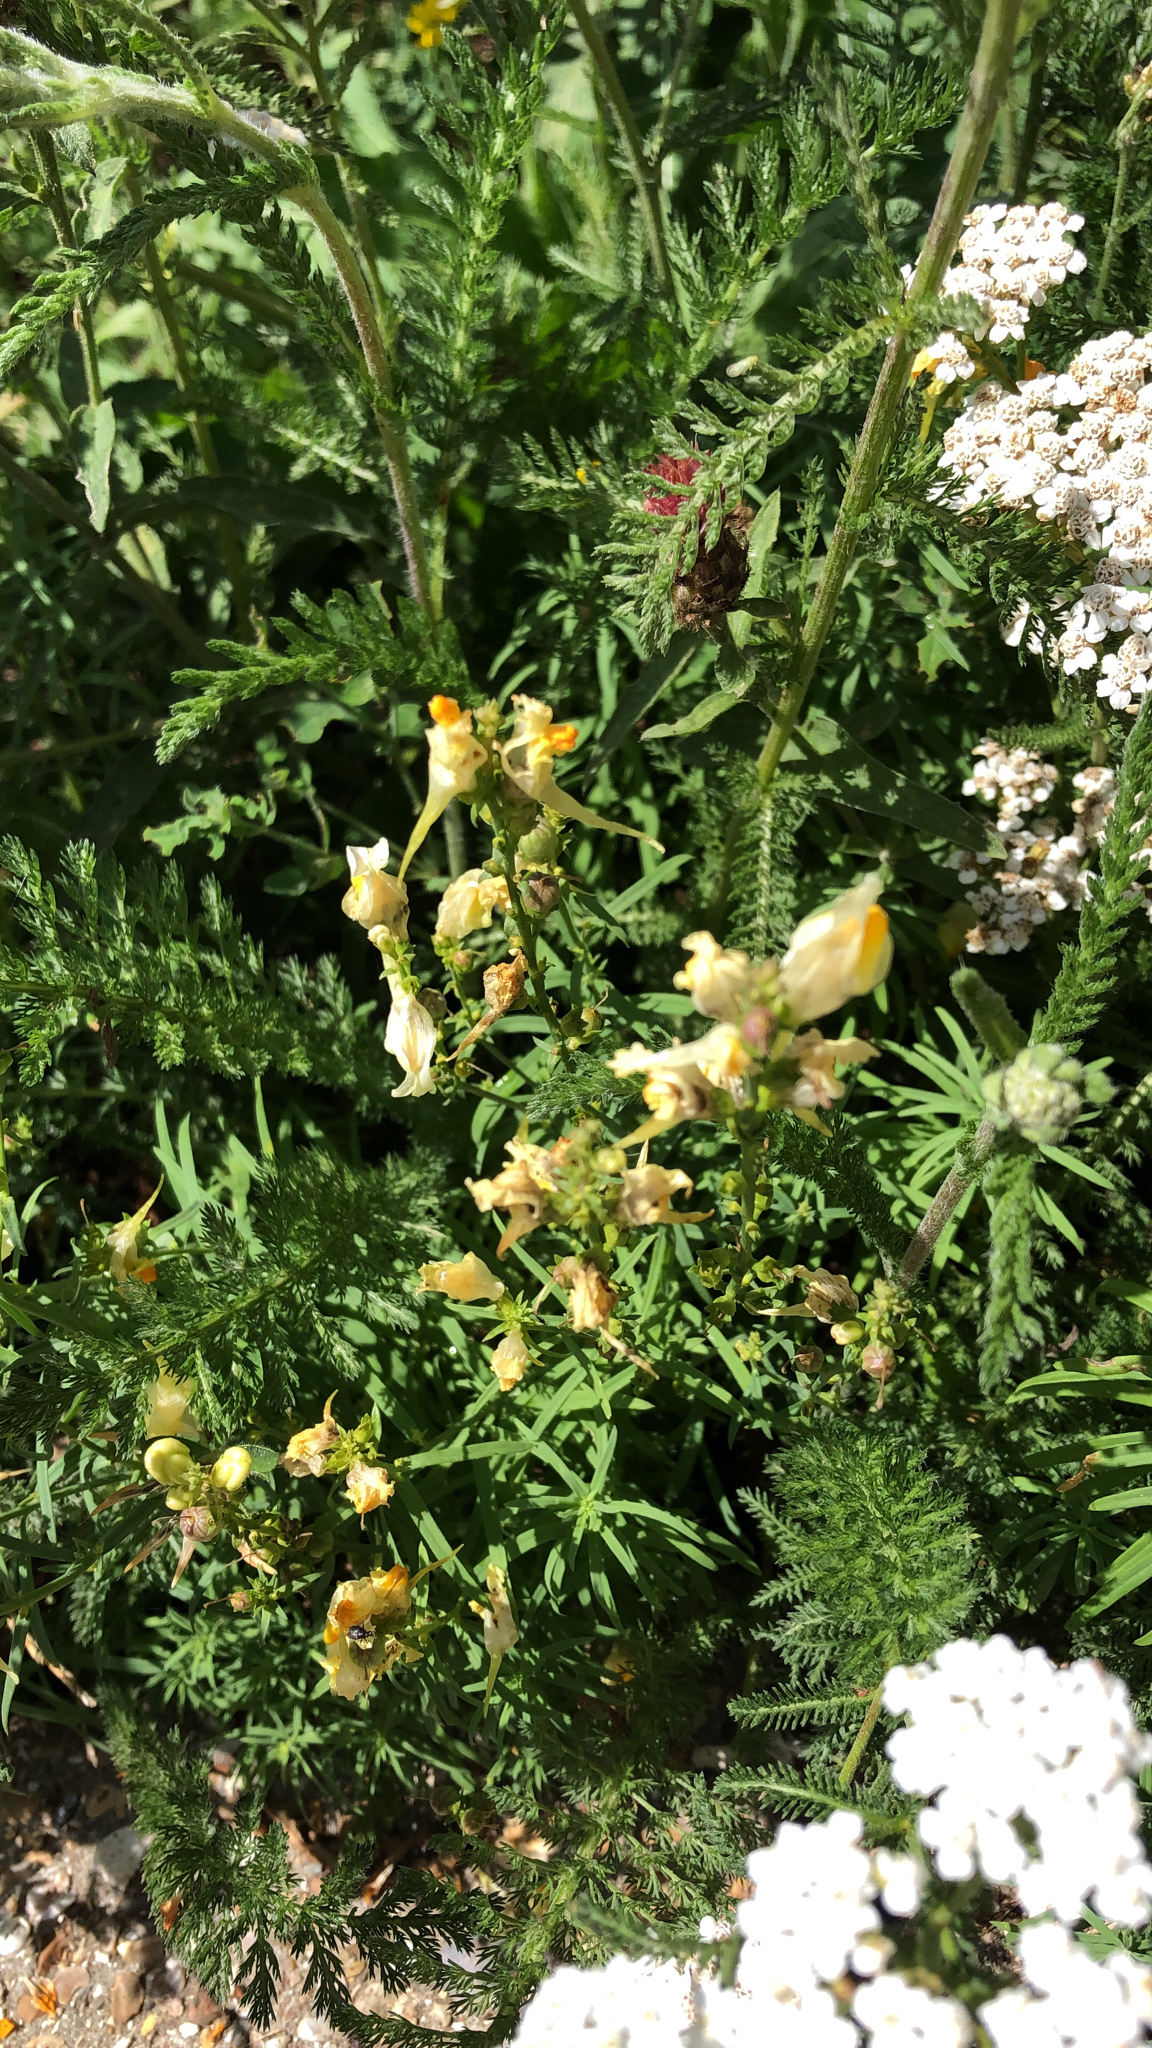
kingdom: Plantae
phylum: Tracheophyta
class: Magnoliopsida
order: Lamiales
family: Plantaginaceae
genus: Linaria
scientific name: Linaria vulgaris
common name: Butter and eggs
